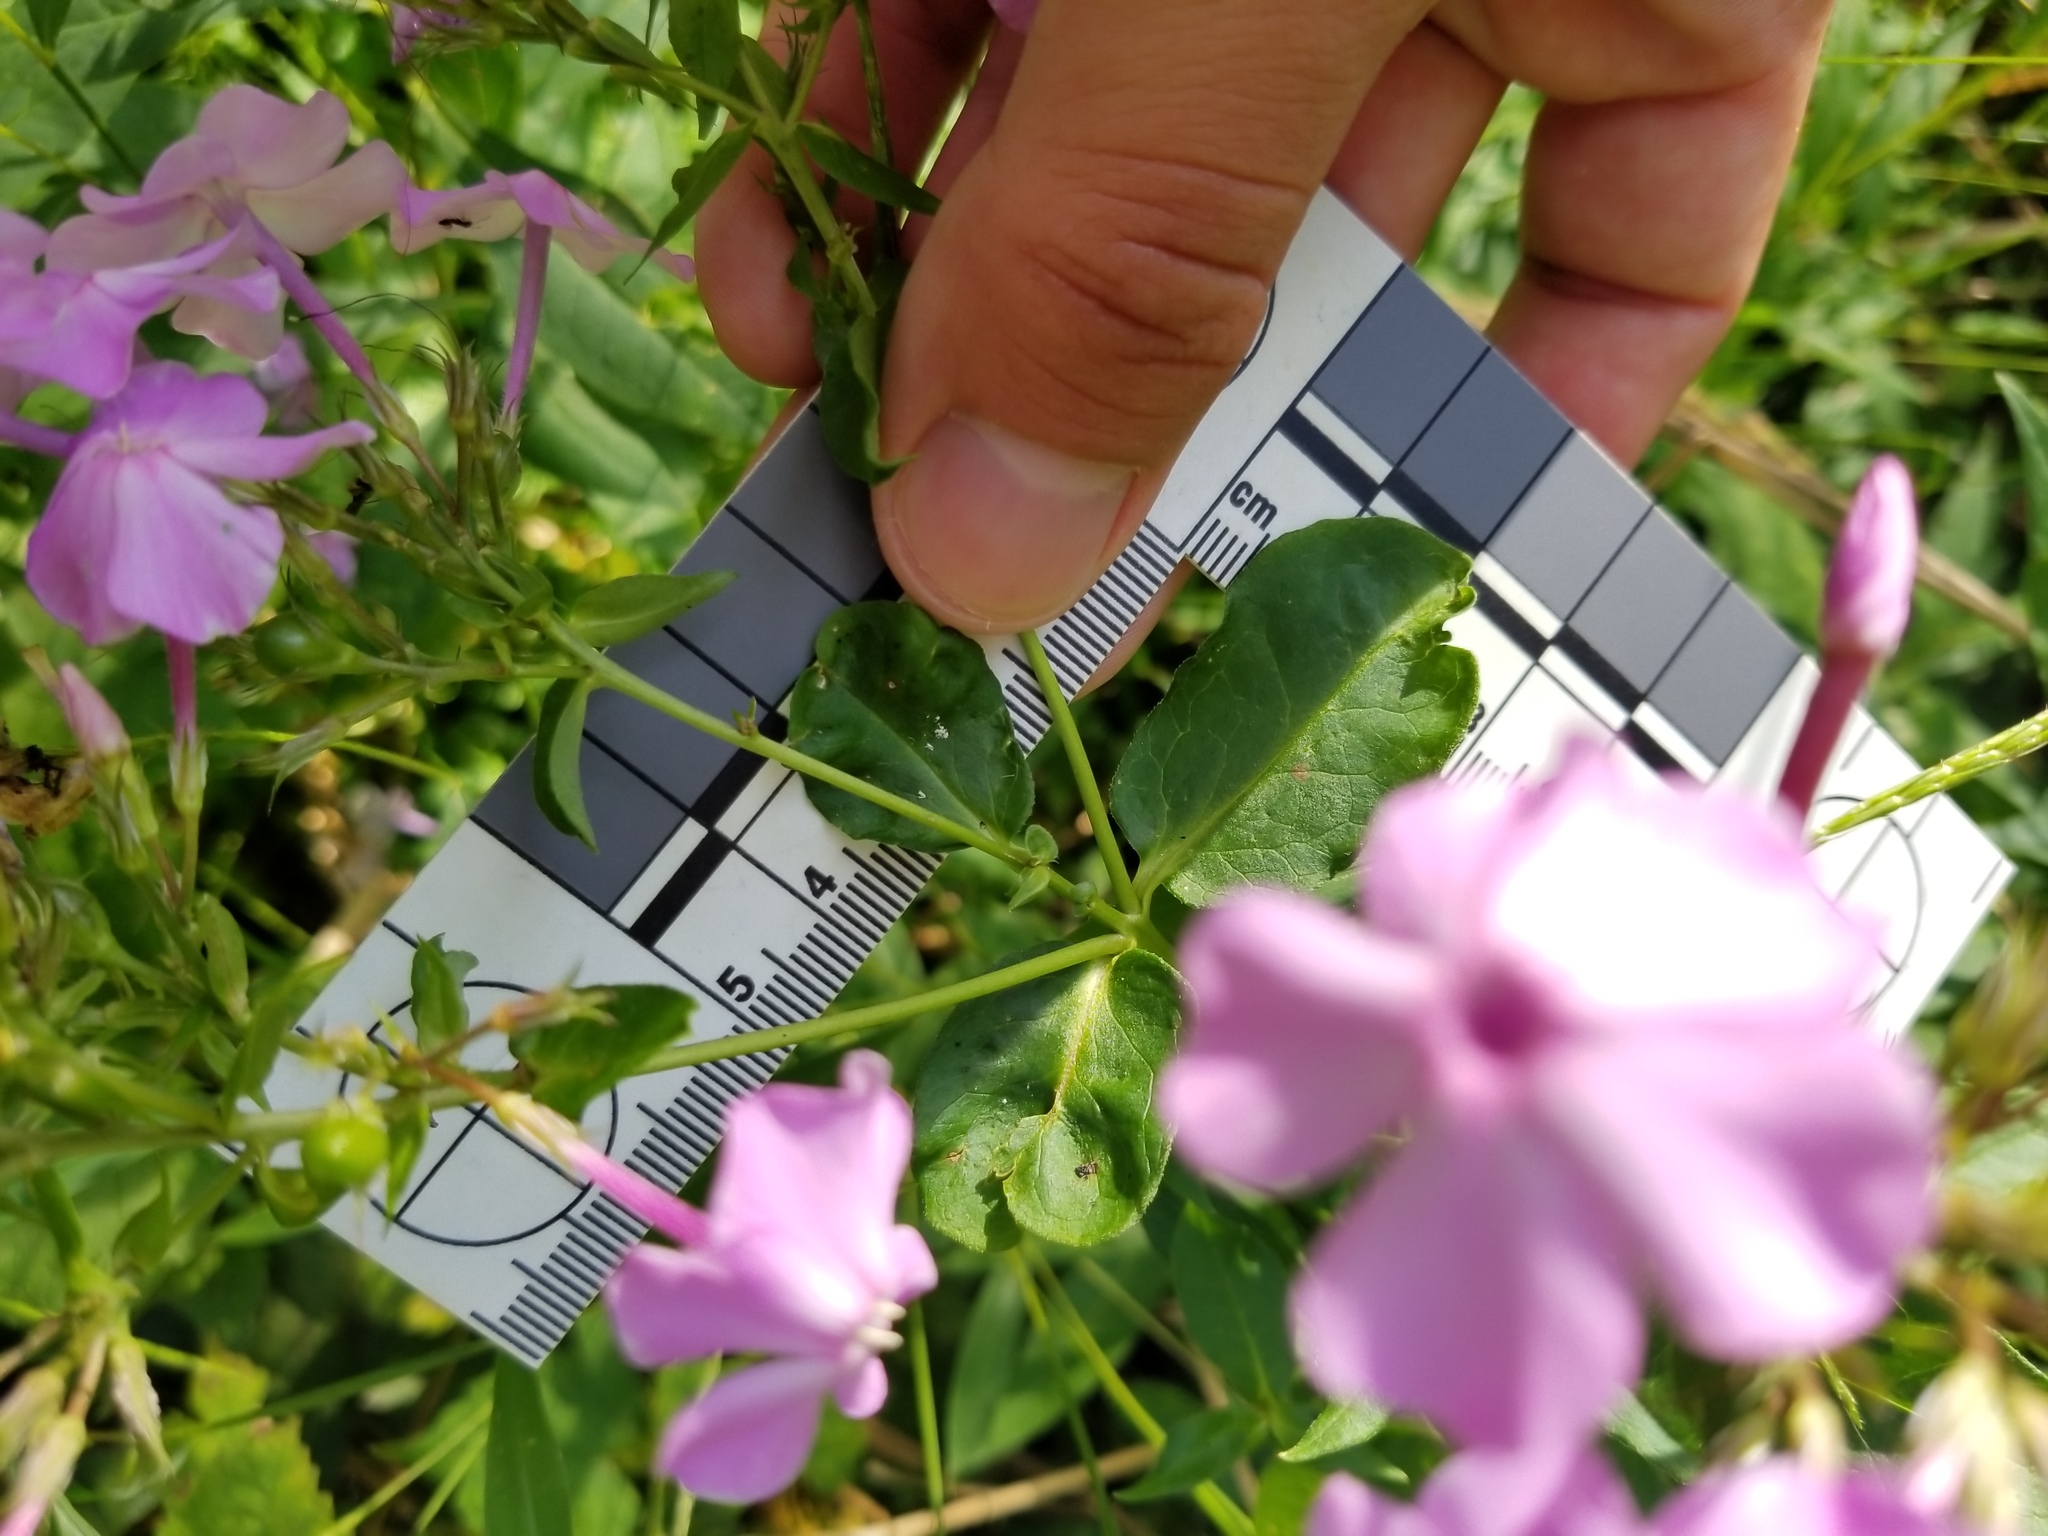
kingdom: Plantae
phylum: Tracheophyta
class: Magnoliopsida
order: Ericales
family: Polemoniaceae
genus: Phlox
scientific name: Phlox paniculata
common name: Fall phlox
